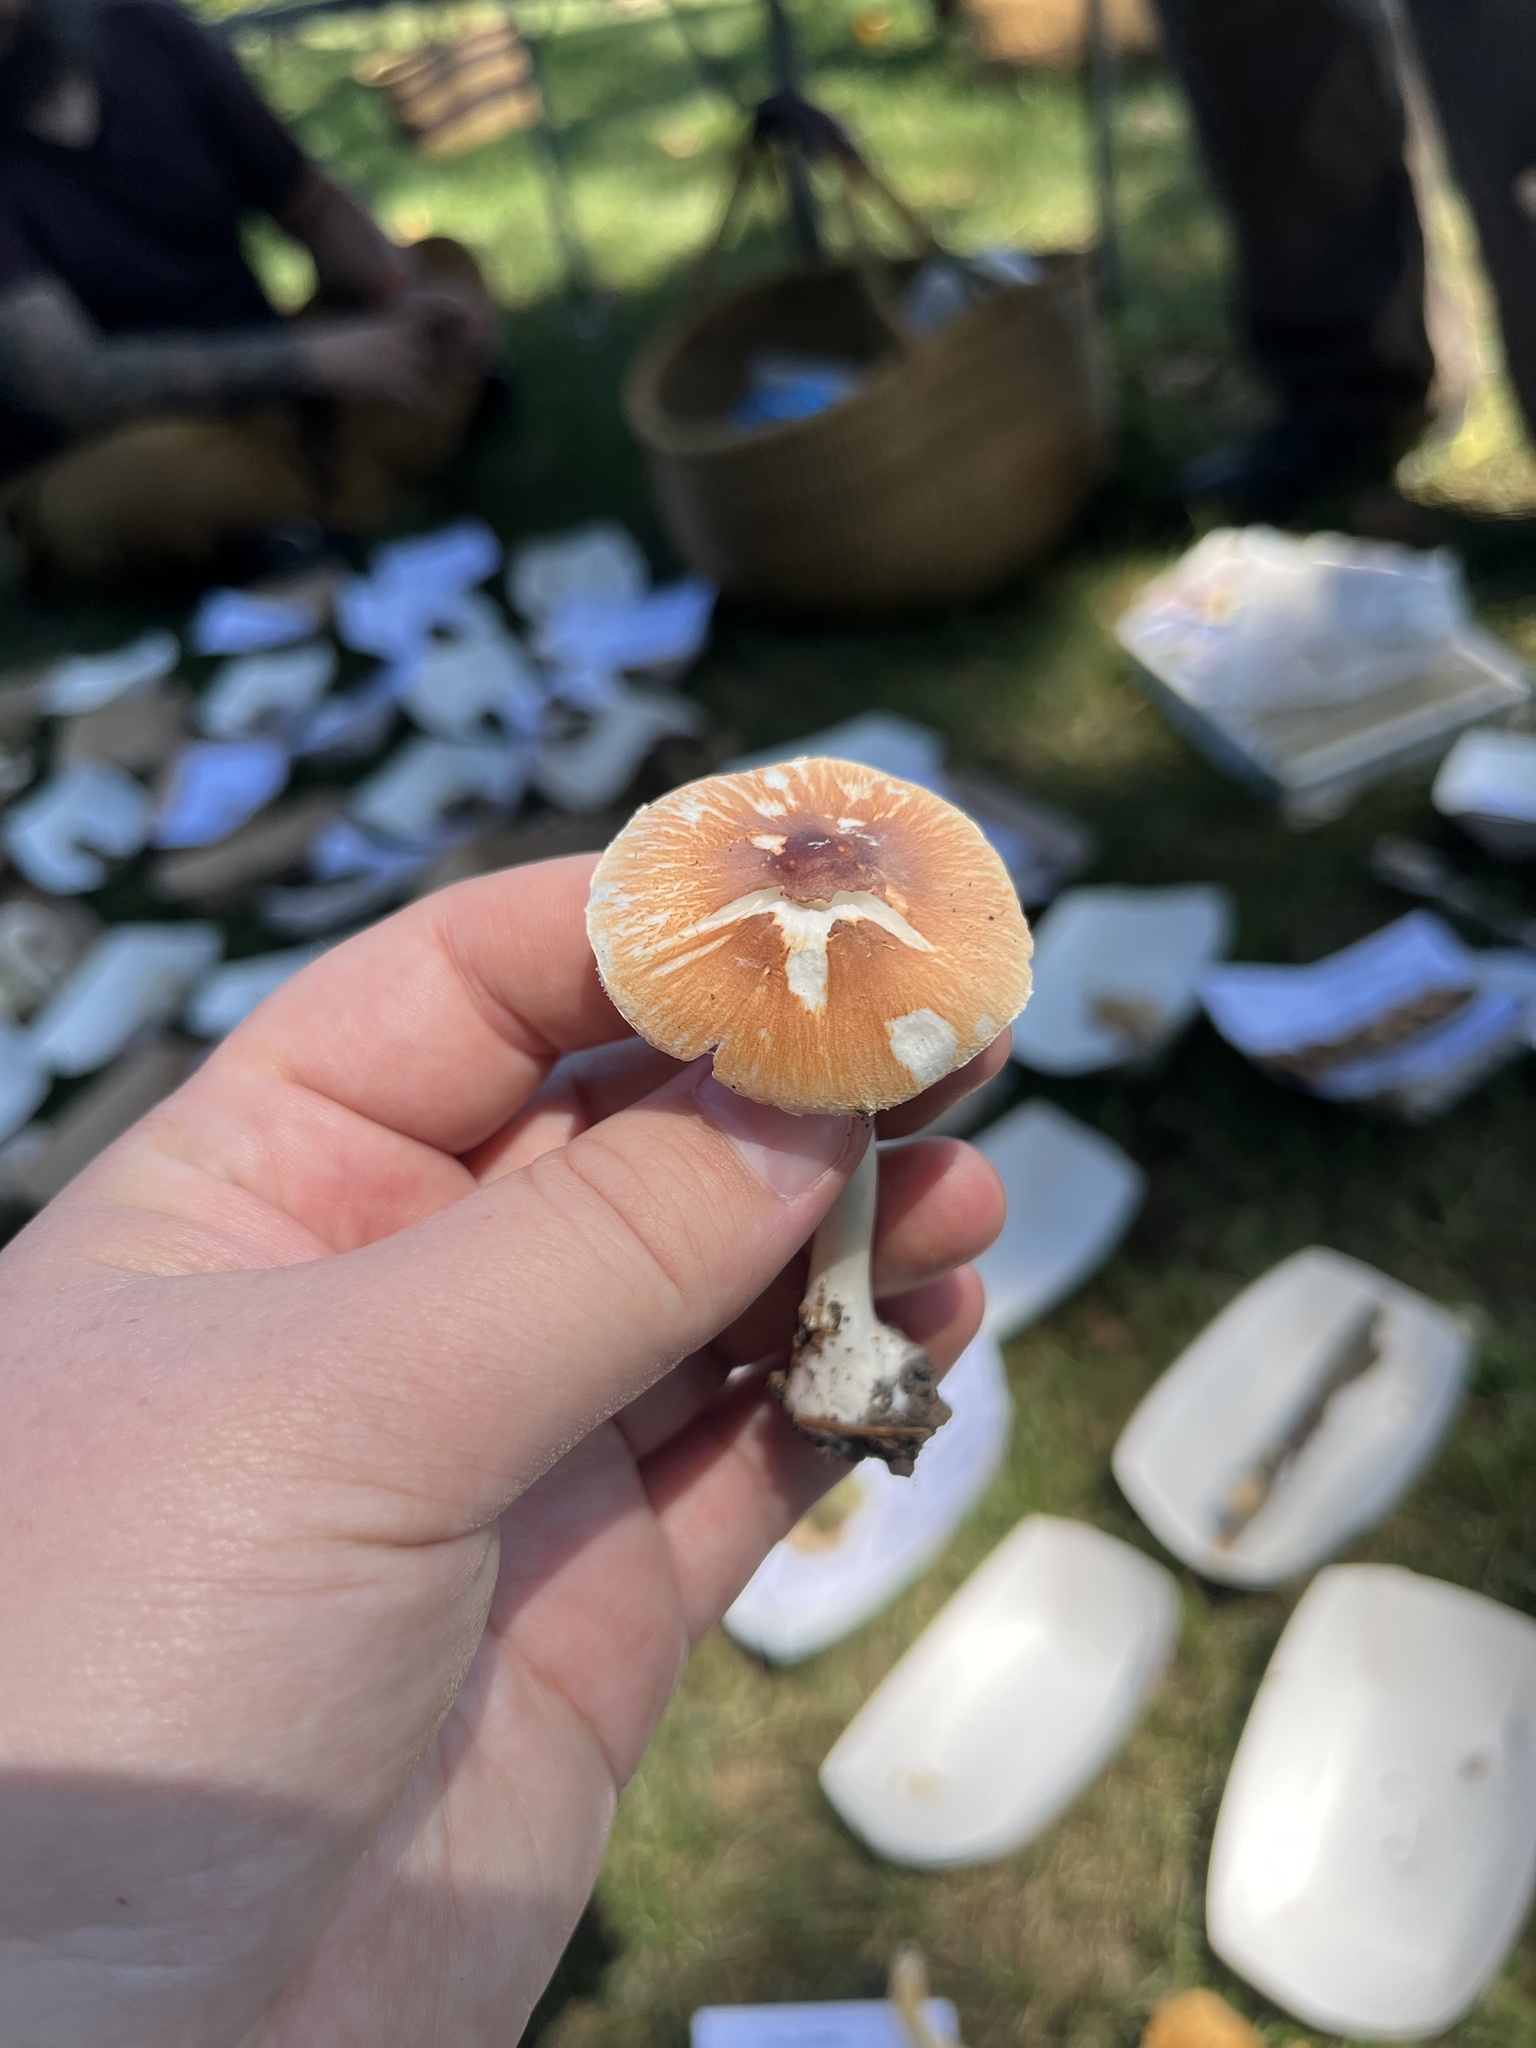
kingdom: Fungi
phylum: Basidiomycota
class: Agaricomycetes
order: Agaricales
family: Agaricaceae
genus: Leucoagaricus
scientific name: Leucoagaricus rubrotinctus
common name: Ruby dapperling
